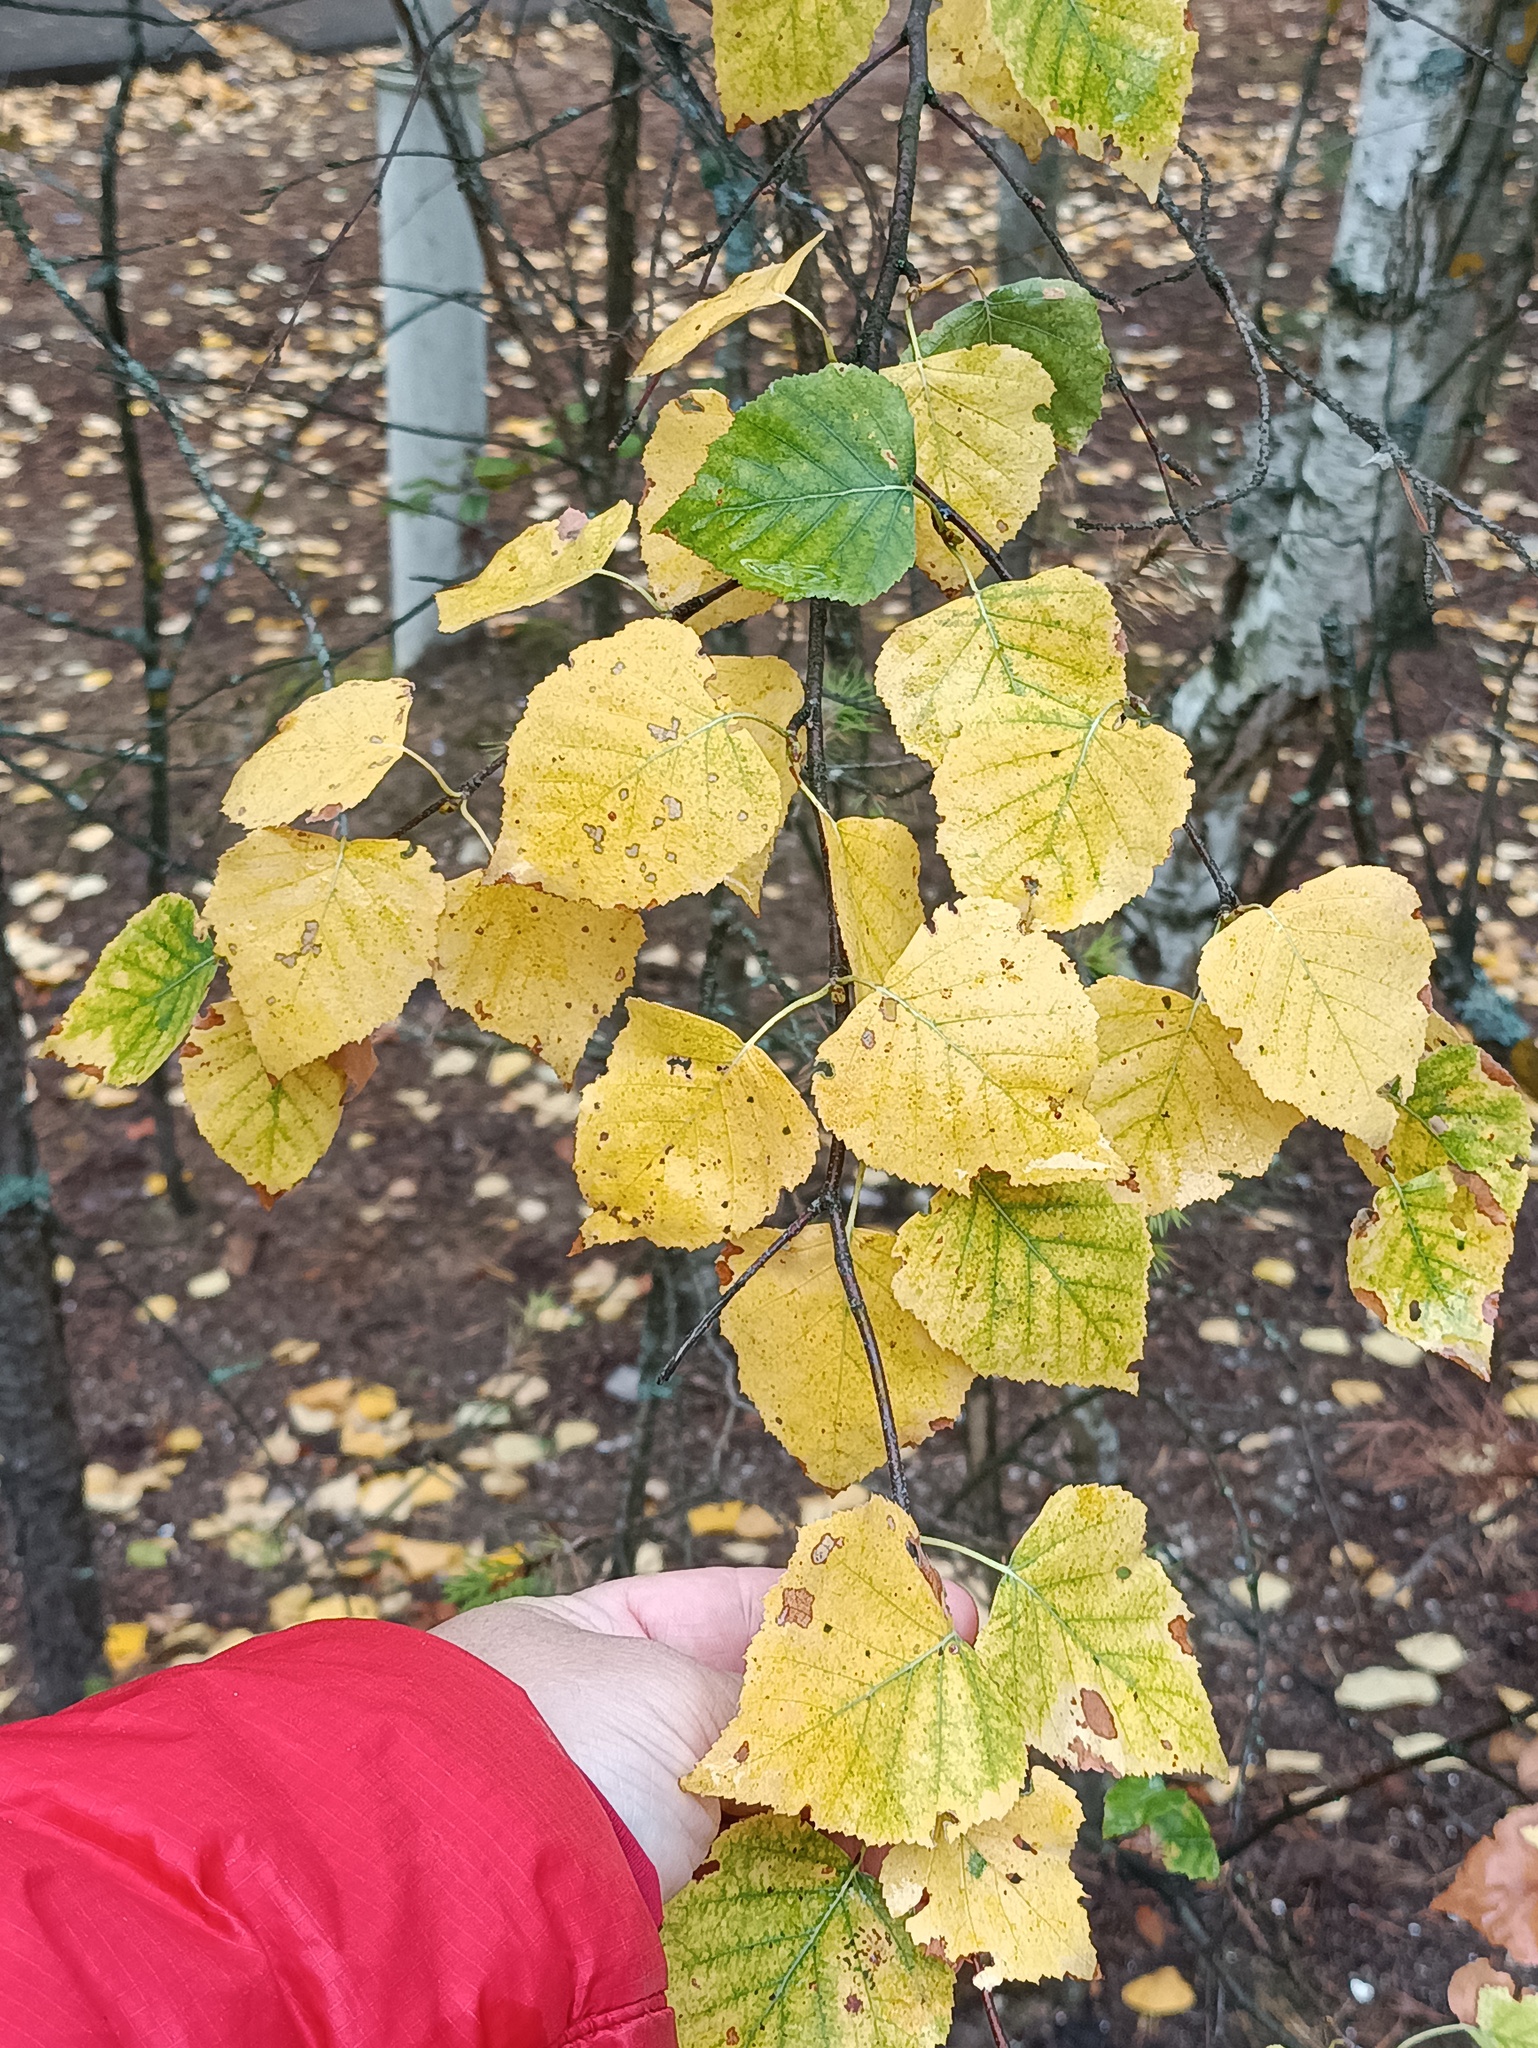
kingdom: Plantae
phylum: Tracheophyta
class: Magnoliopsida
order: Fagales
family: Betulaceae
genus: Betula
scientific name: Betula pubescens
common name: Downy birch
